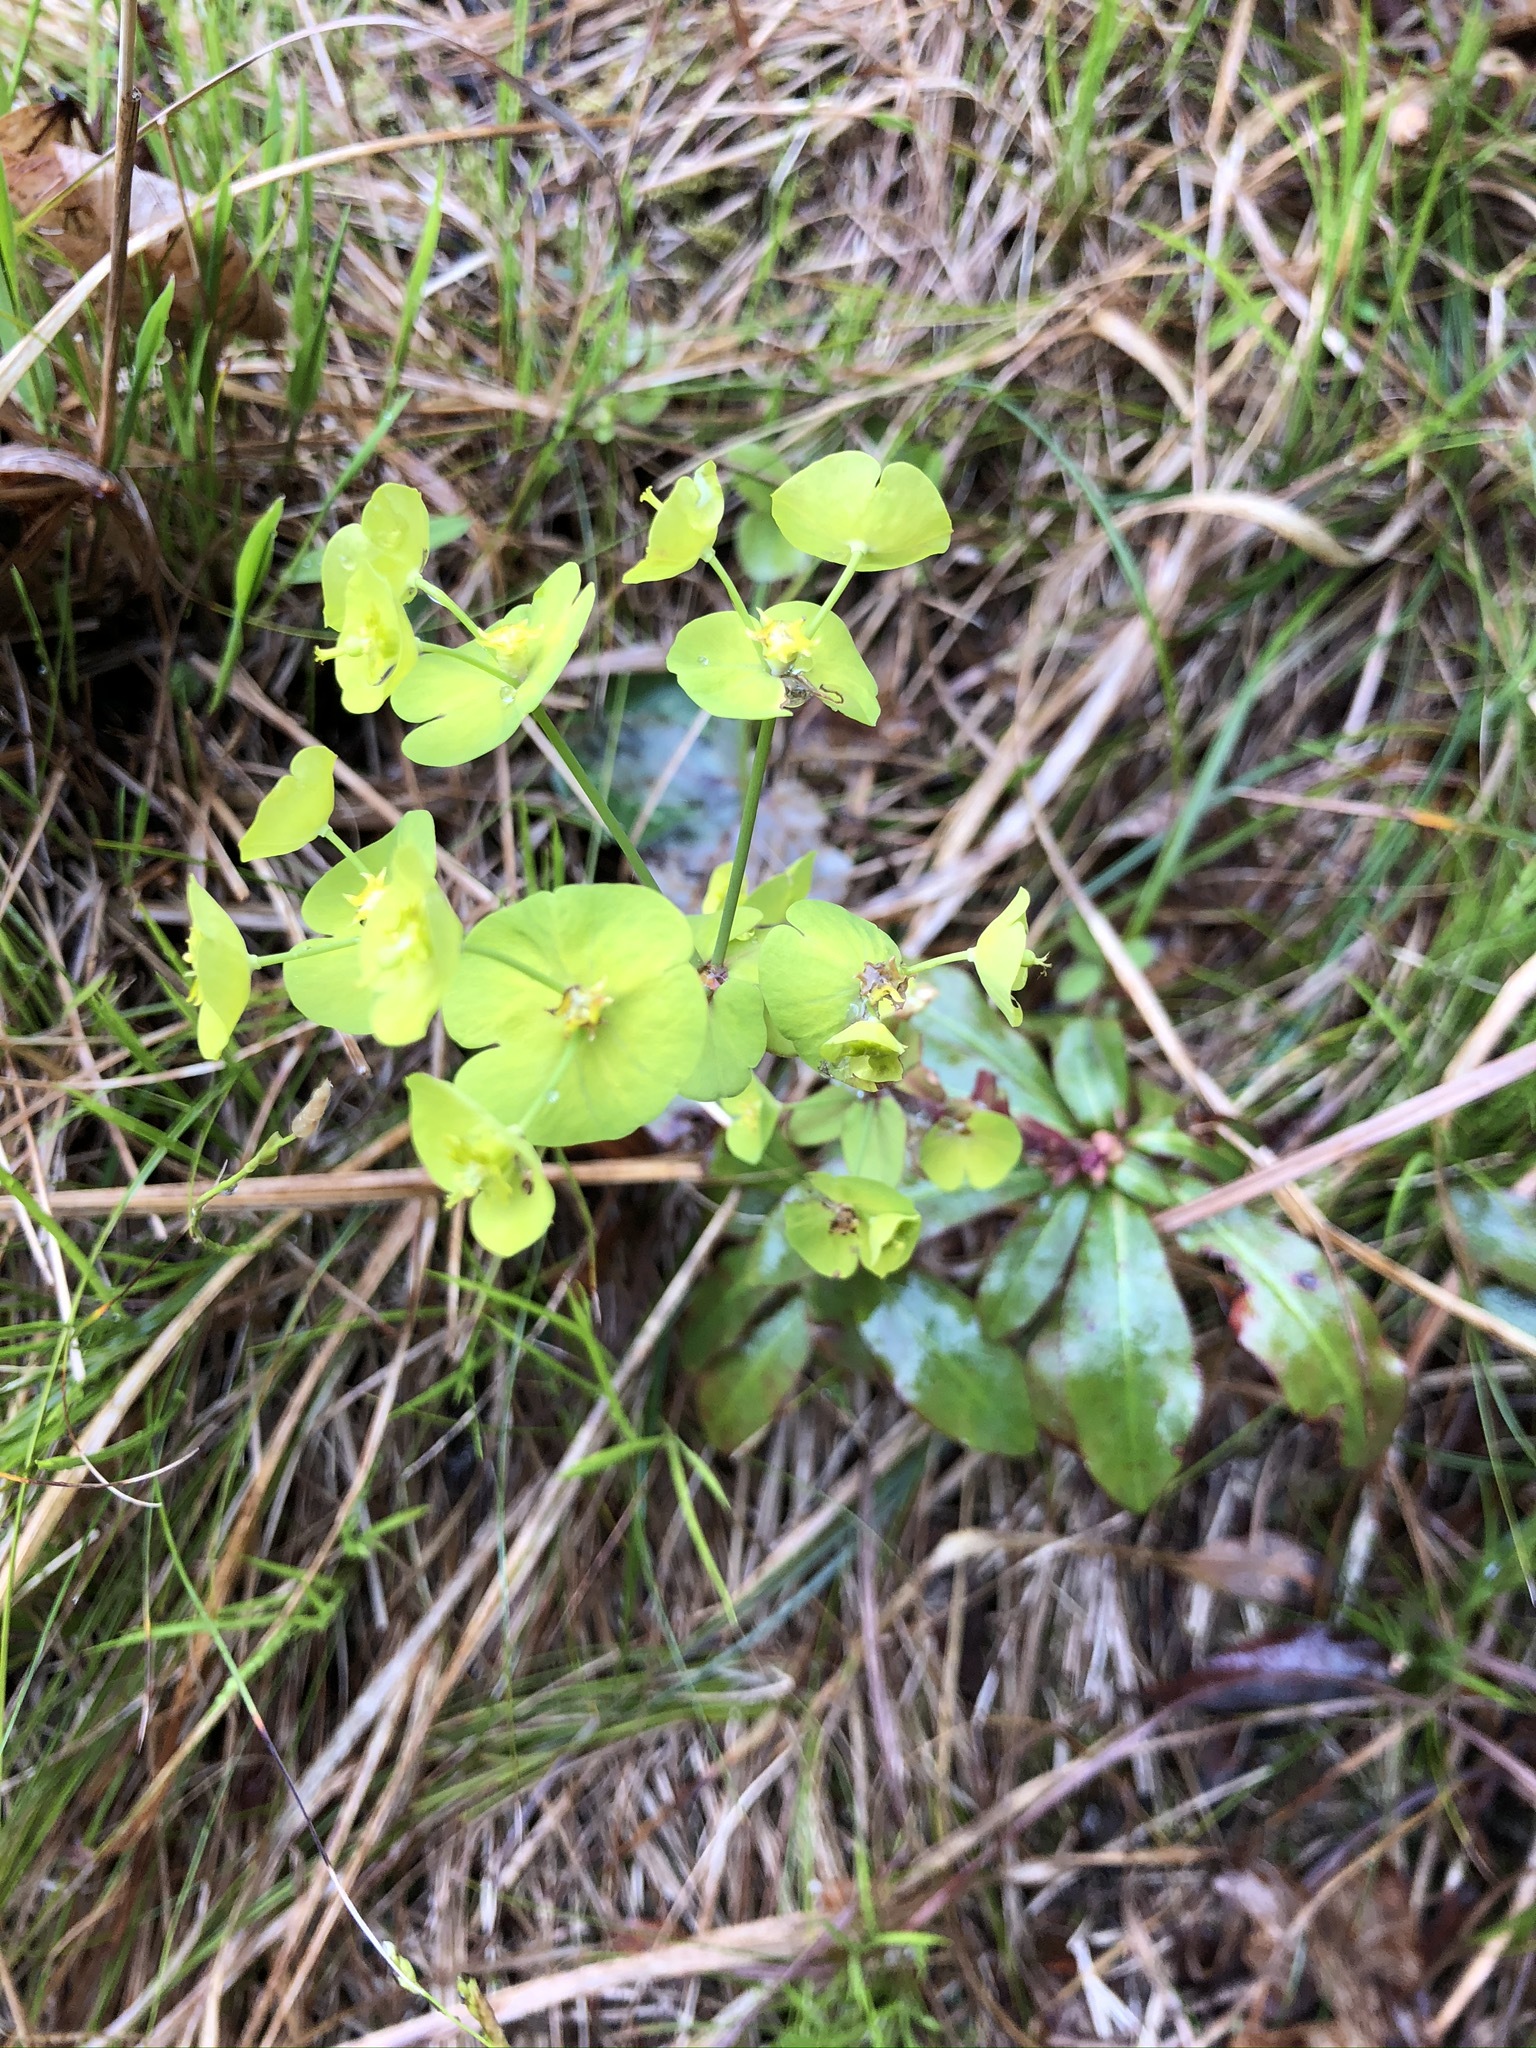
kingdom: Plantae
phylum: Tracheophyta
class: Magnoliopsida
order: Malpighiales
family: Euphorbiaceae
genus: Euphorbia
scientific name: Euphorbia amygdaloides
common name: Wood spurge
